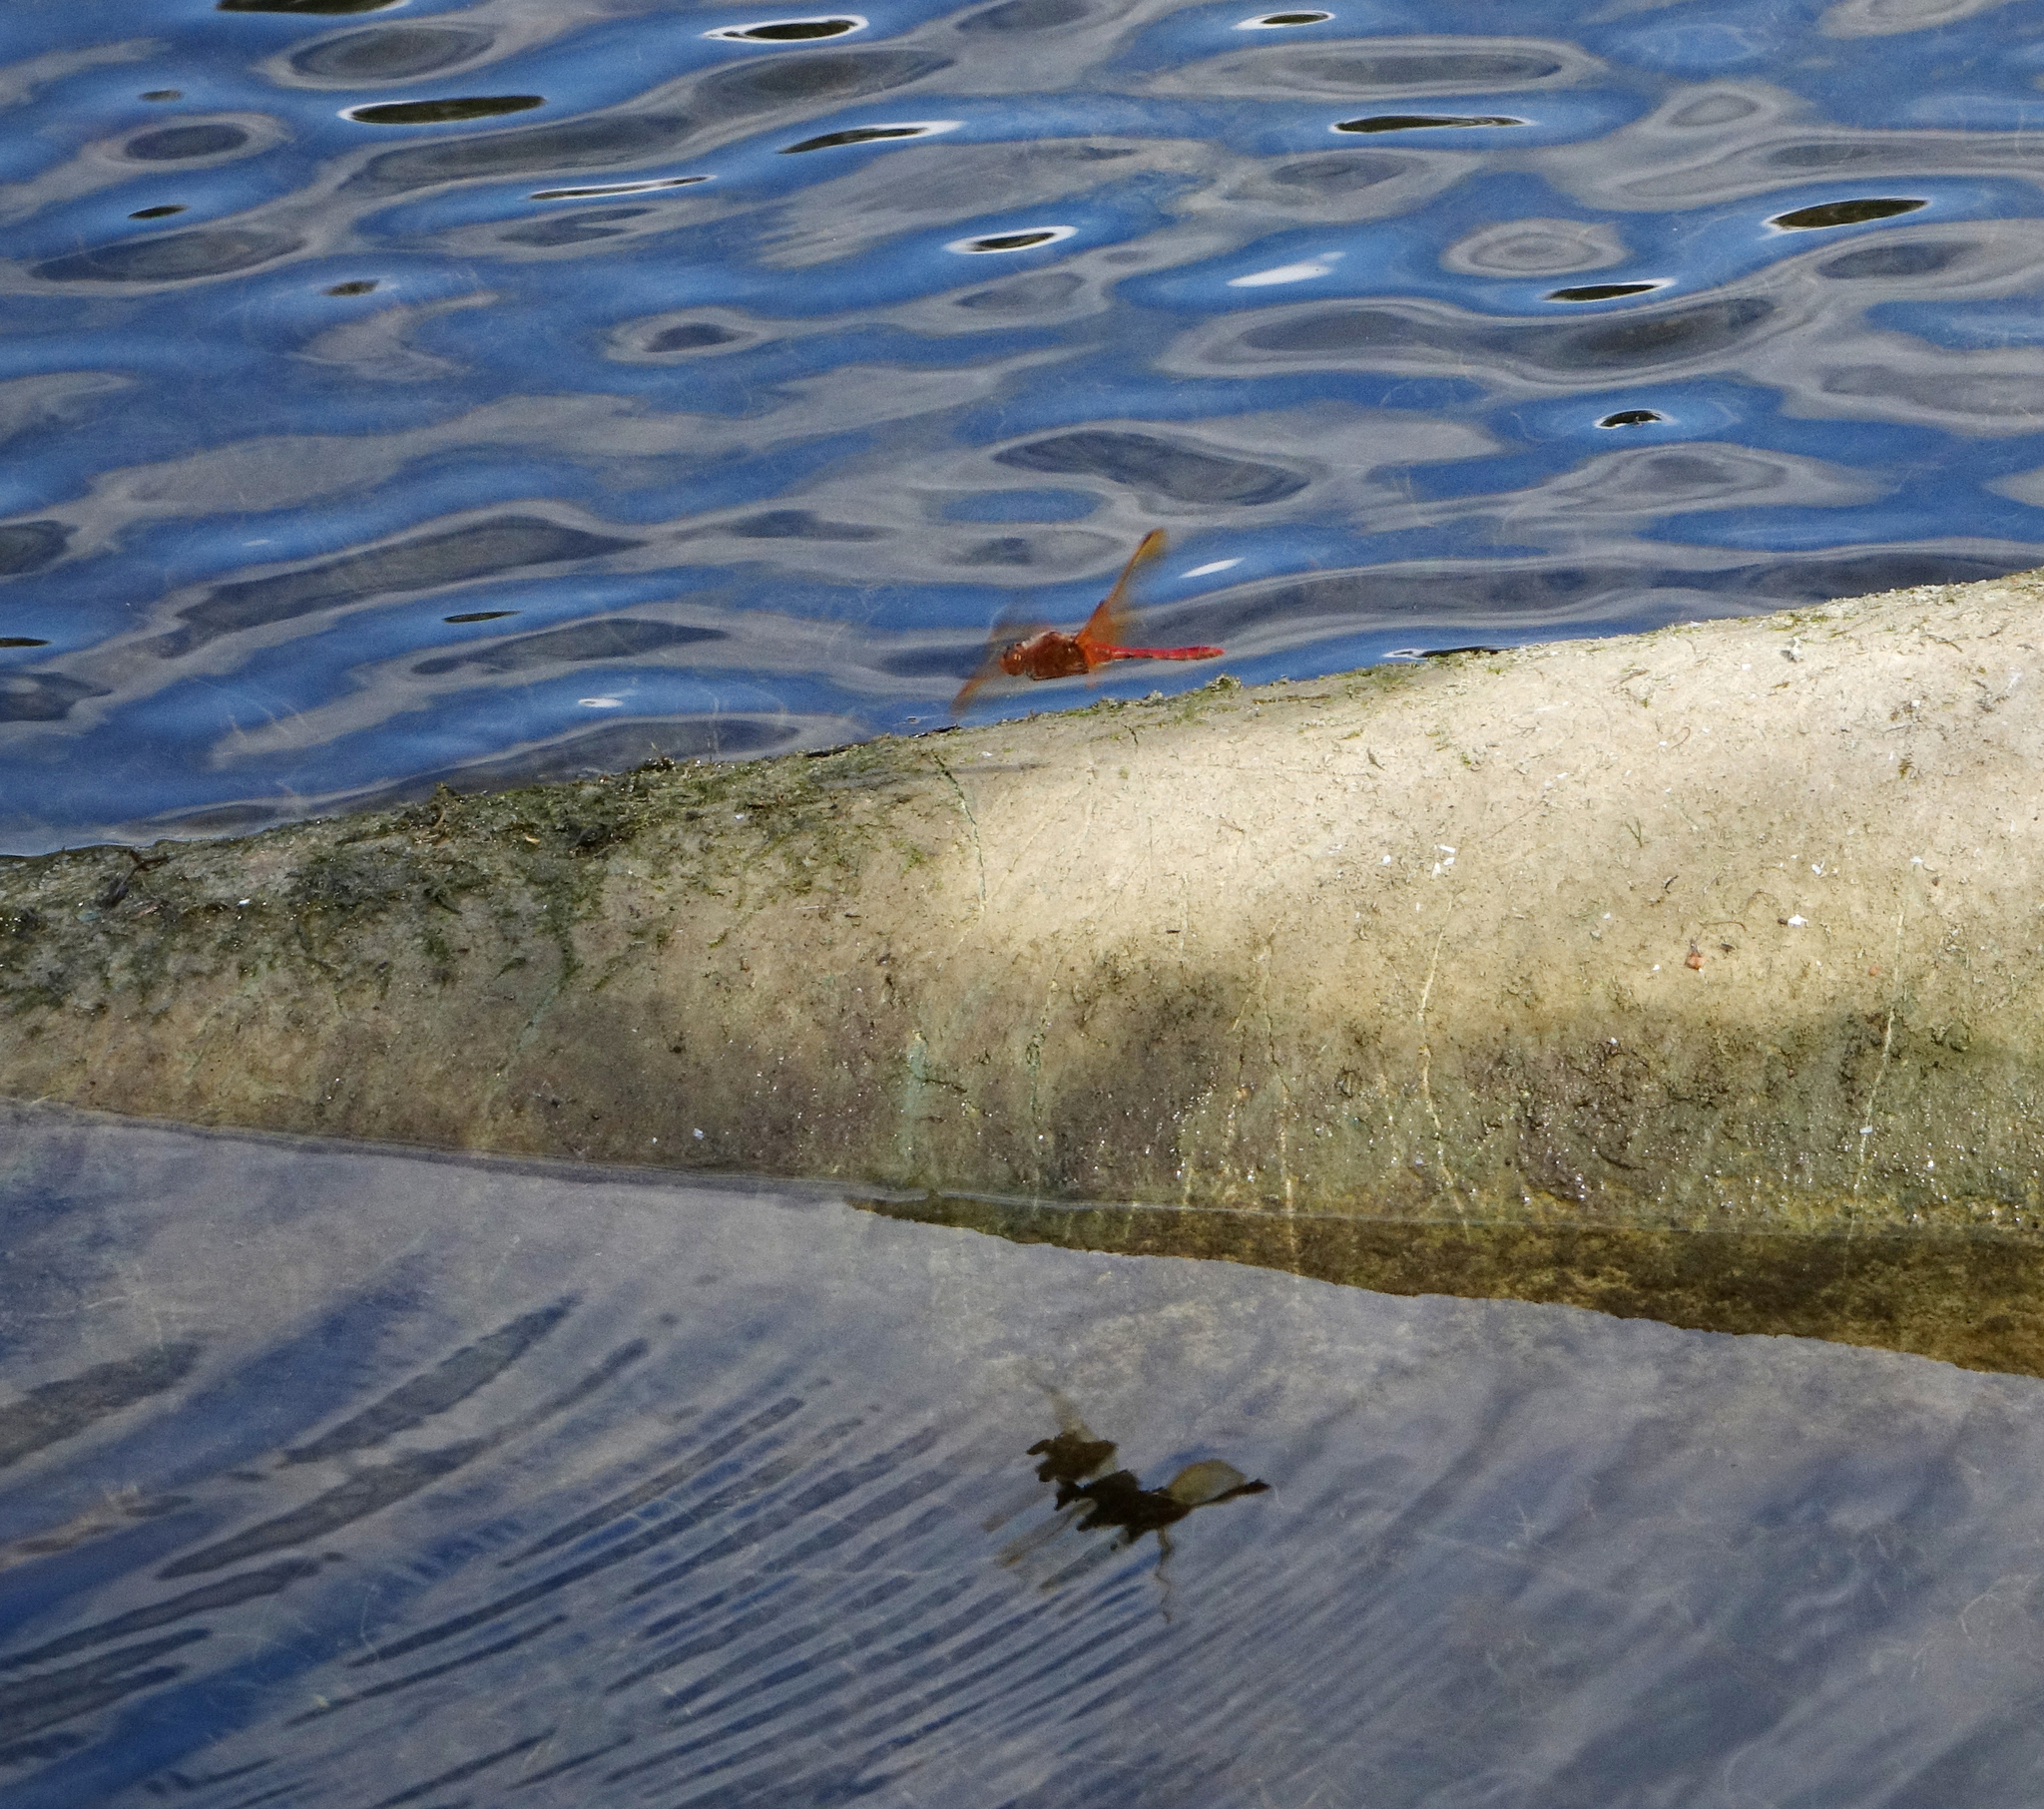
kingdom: Animalia
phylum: Arthropoda
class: Insecta
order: Odonata
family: Libellulidae
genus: Sympetrum
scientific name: Sympetrum croceolum
